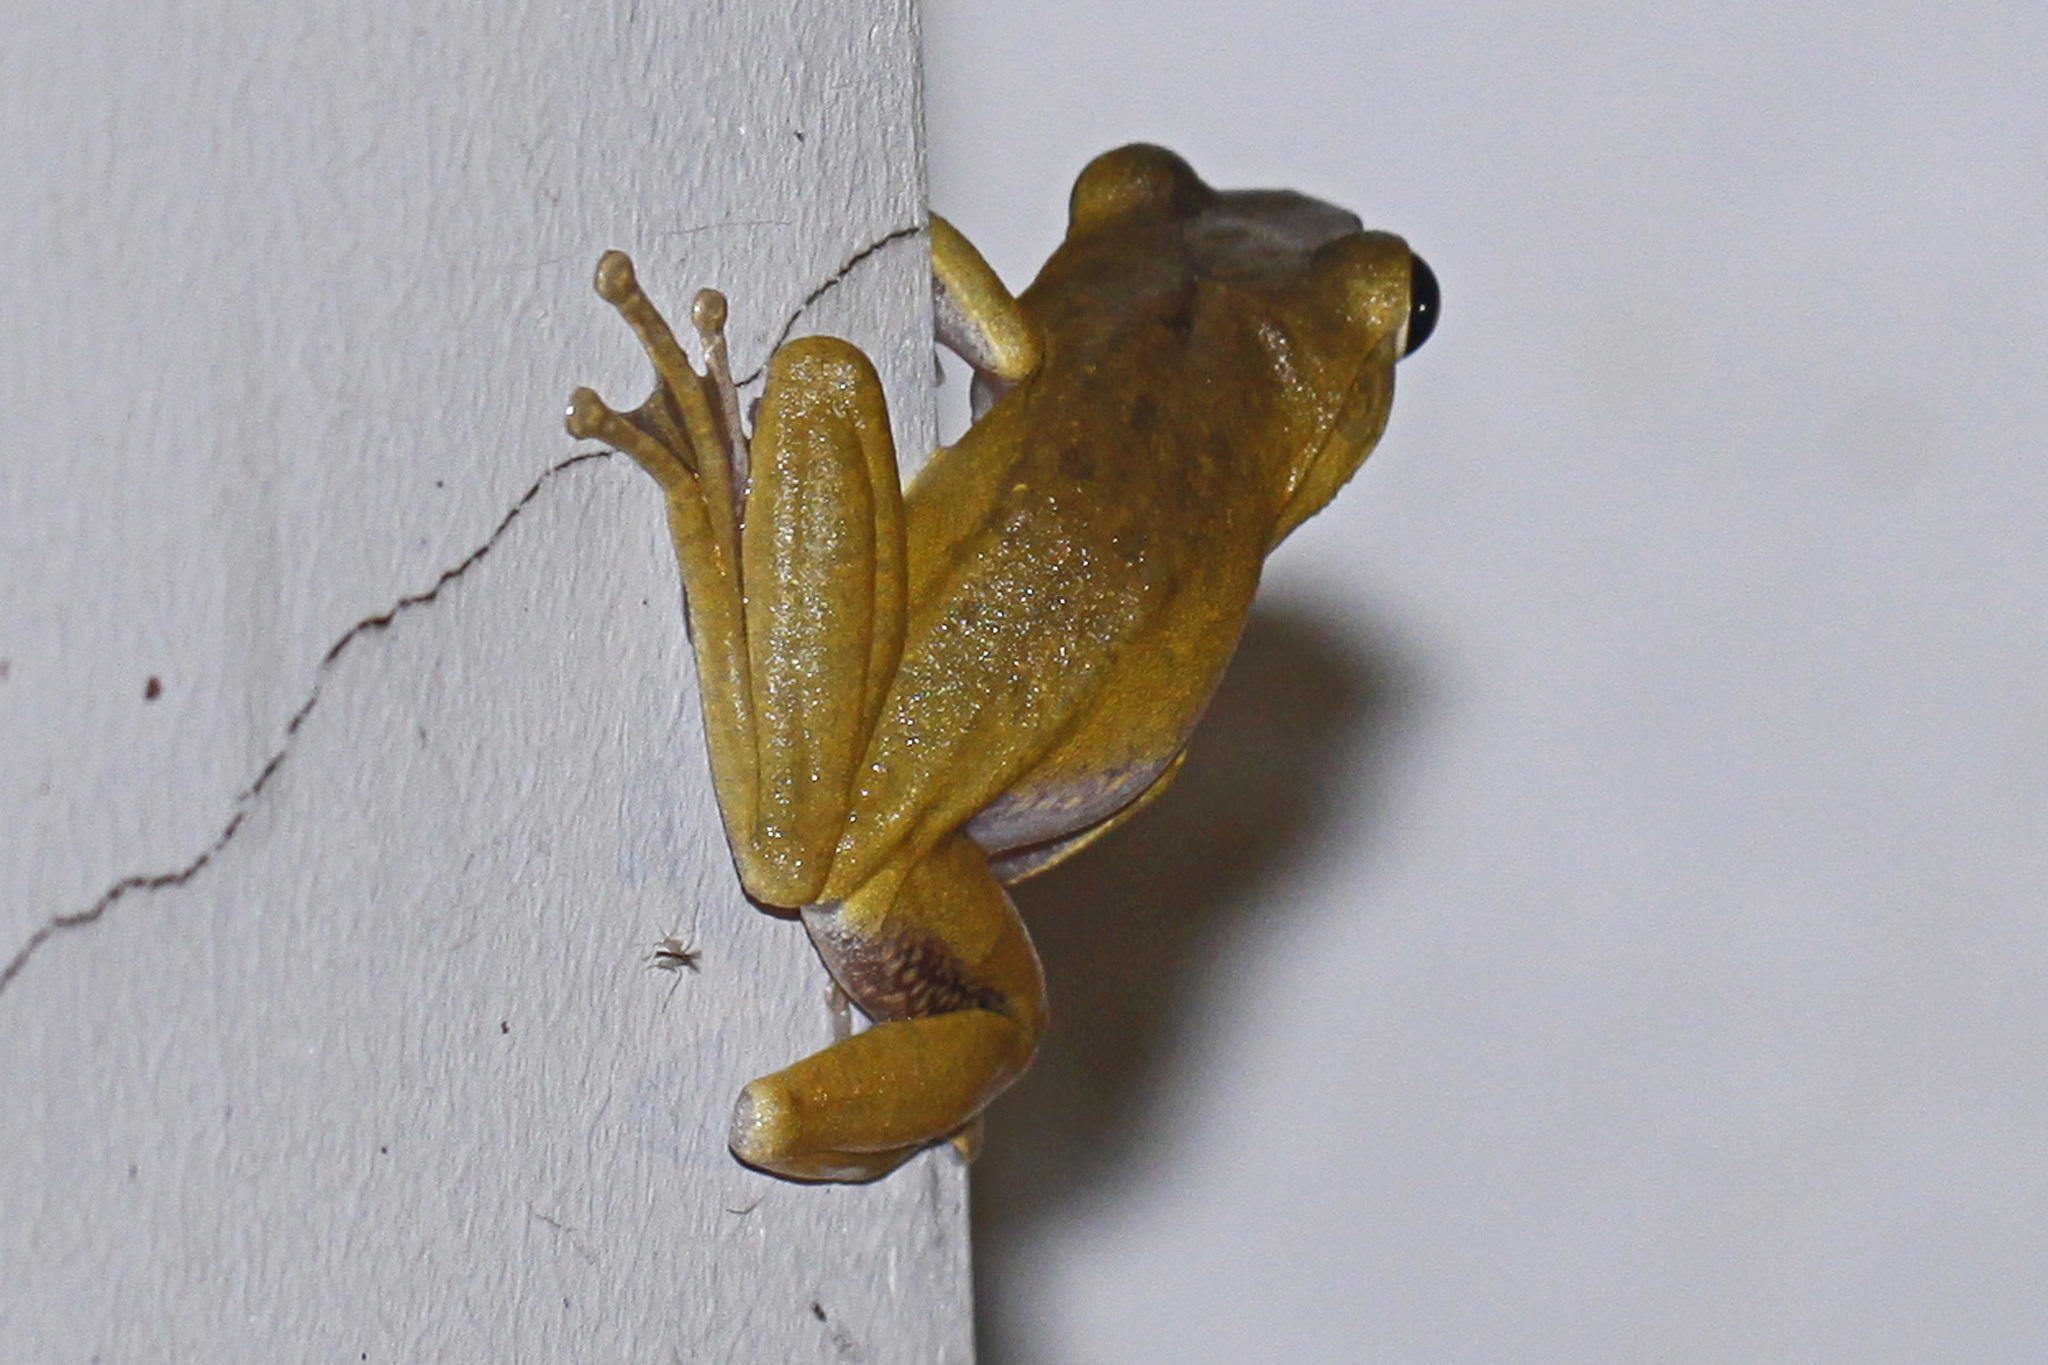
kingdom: Animalia
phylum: Chordata
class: Amphibia
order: Anura
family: Rhacophoridae
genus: Polypedates
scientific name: Polypedates megacephalus
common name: Hong kong whipping frog
